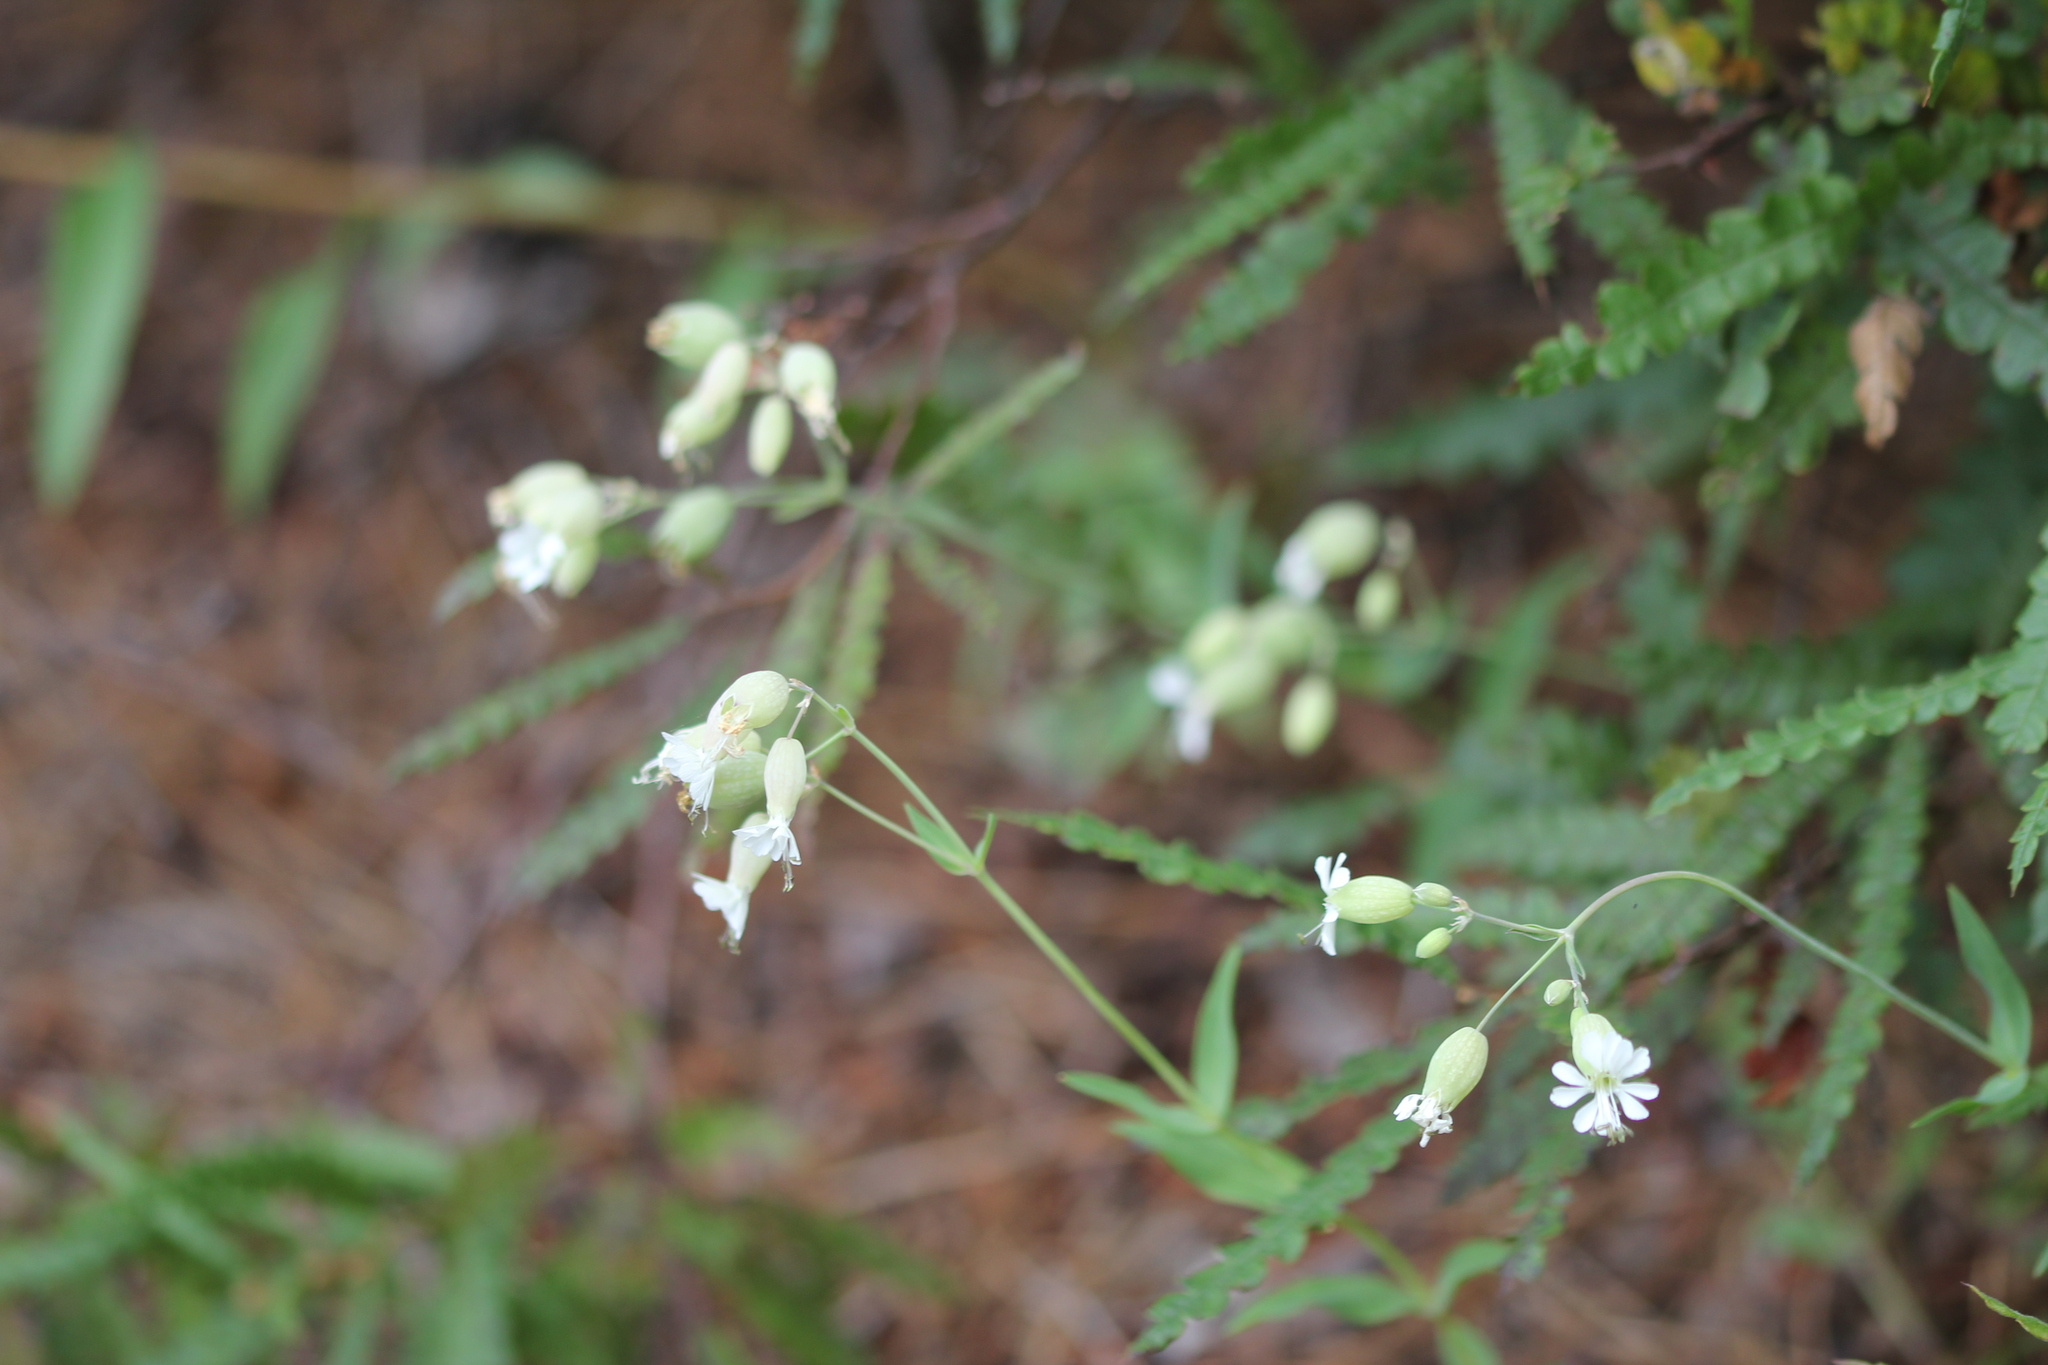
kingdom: Plantae
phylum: Tracheophyta
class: Magnoliopsida
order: Caryophyllales
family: Caryophyllaceae
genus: Silene
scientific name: Silene vulgaris
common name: Bladder campion
